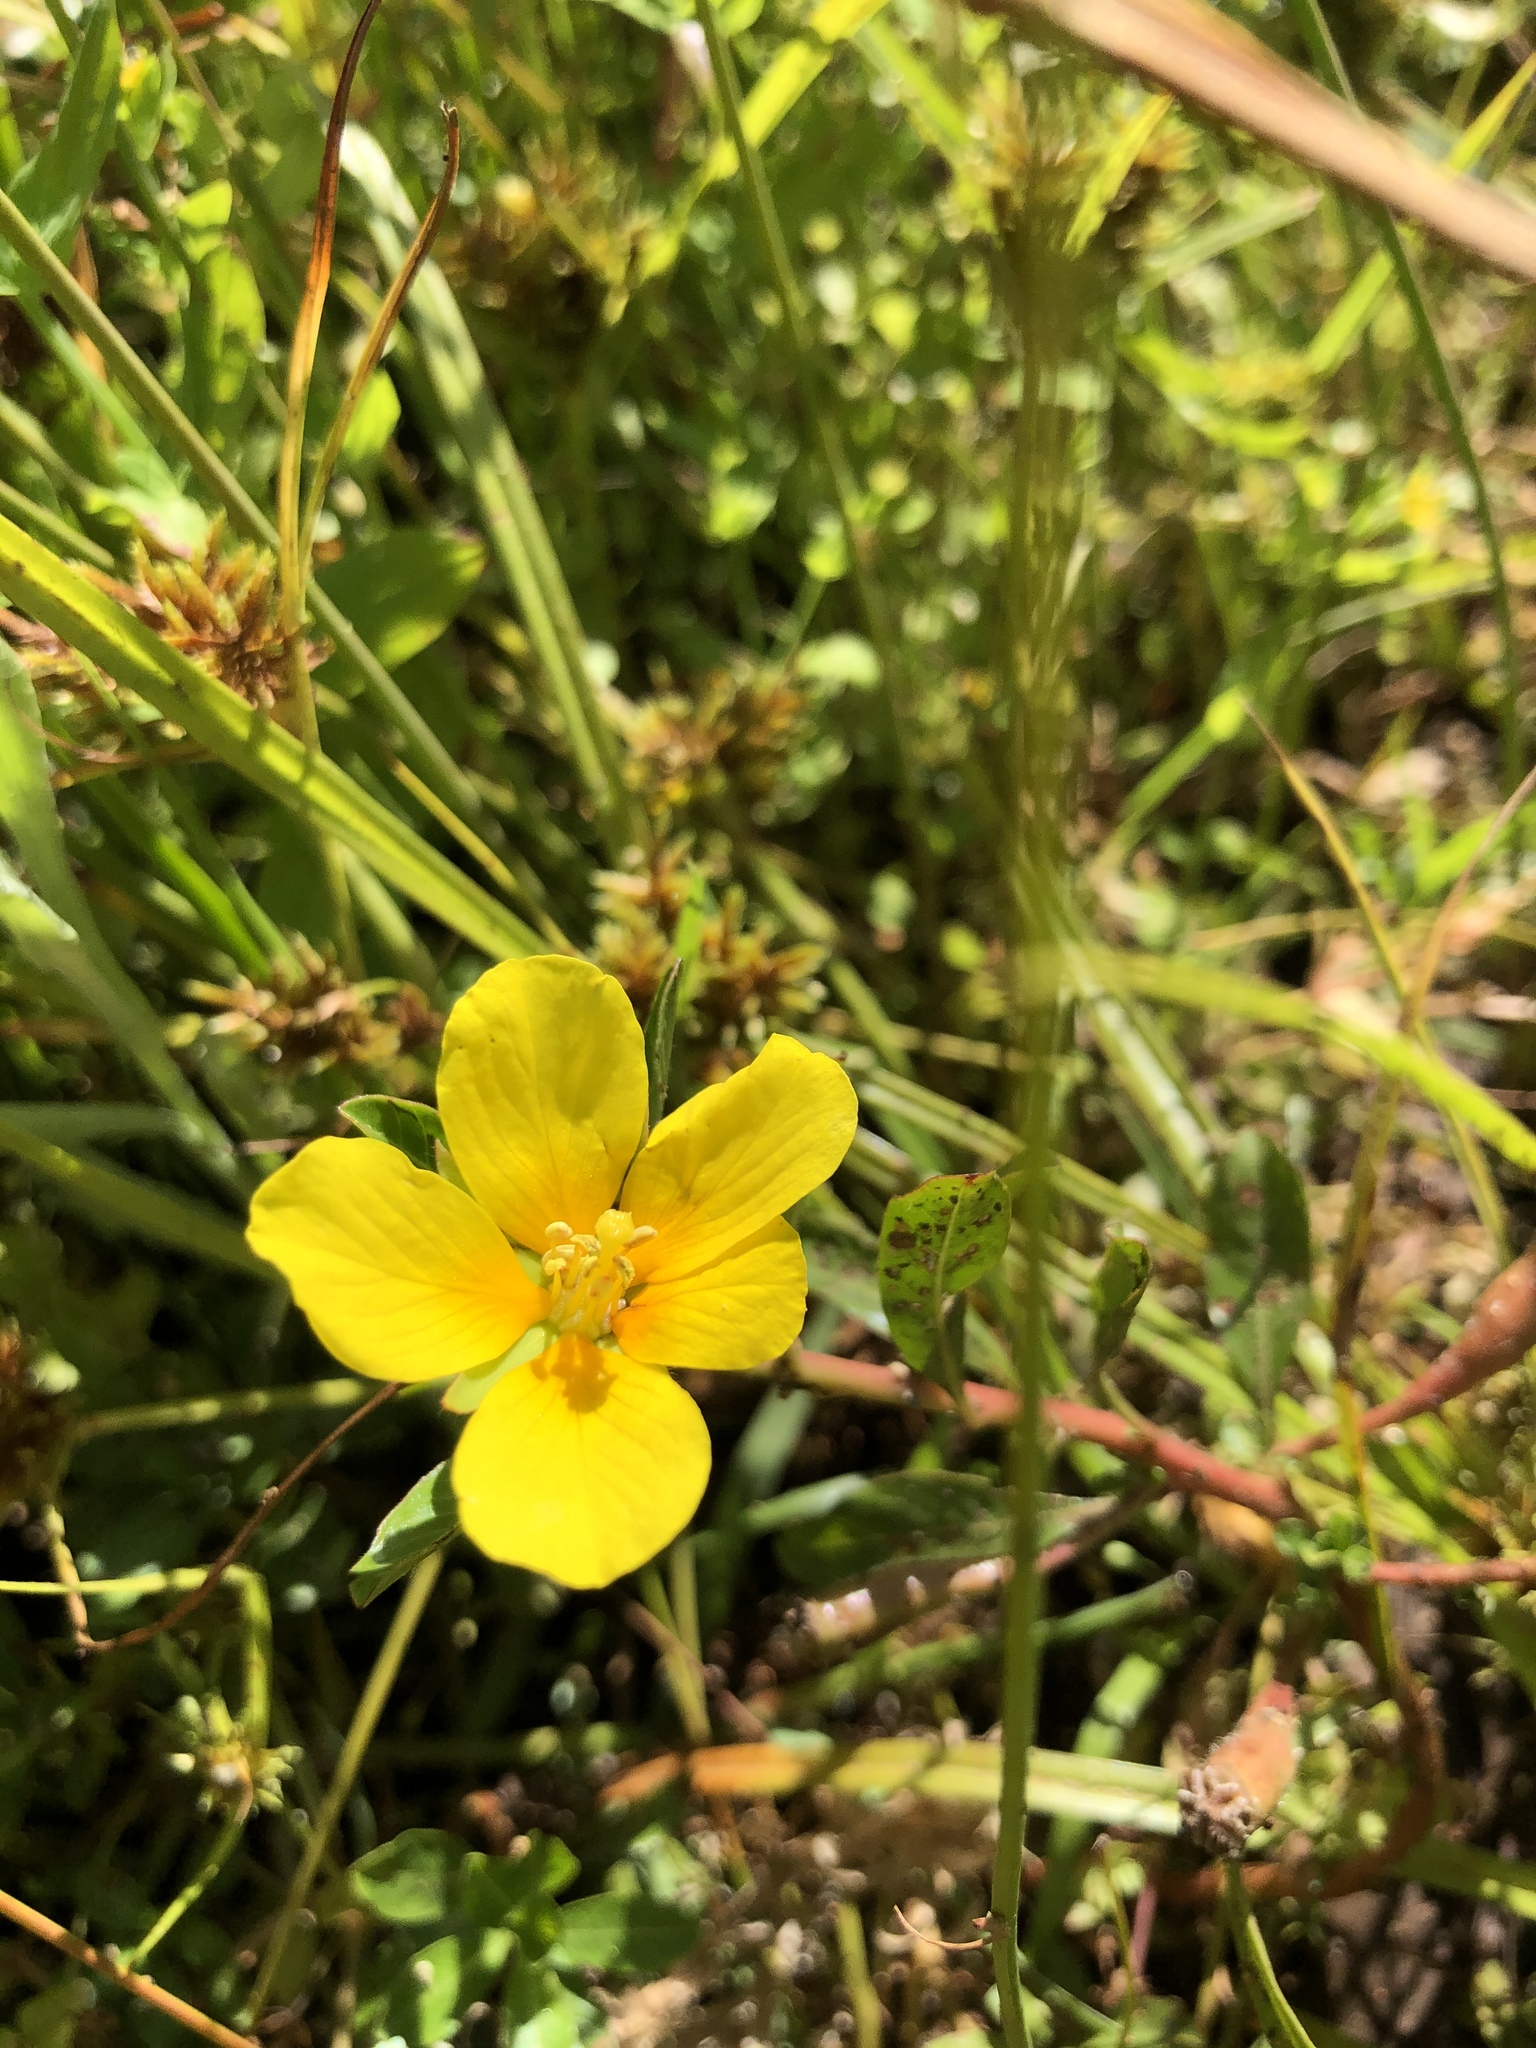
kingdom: Plantae
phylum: Tracheophyta
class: Magnoliopsida
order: Myrtales
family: Onagraceae
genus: Ludwigia
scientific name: Ludwigia peploides
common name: Floating primrose-willow
